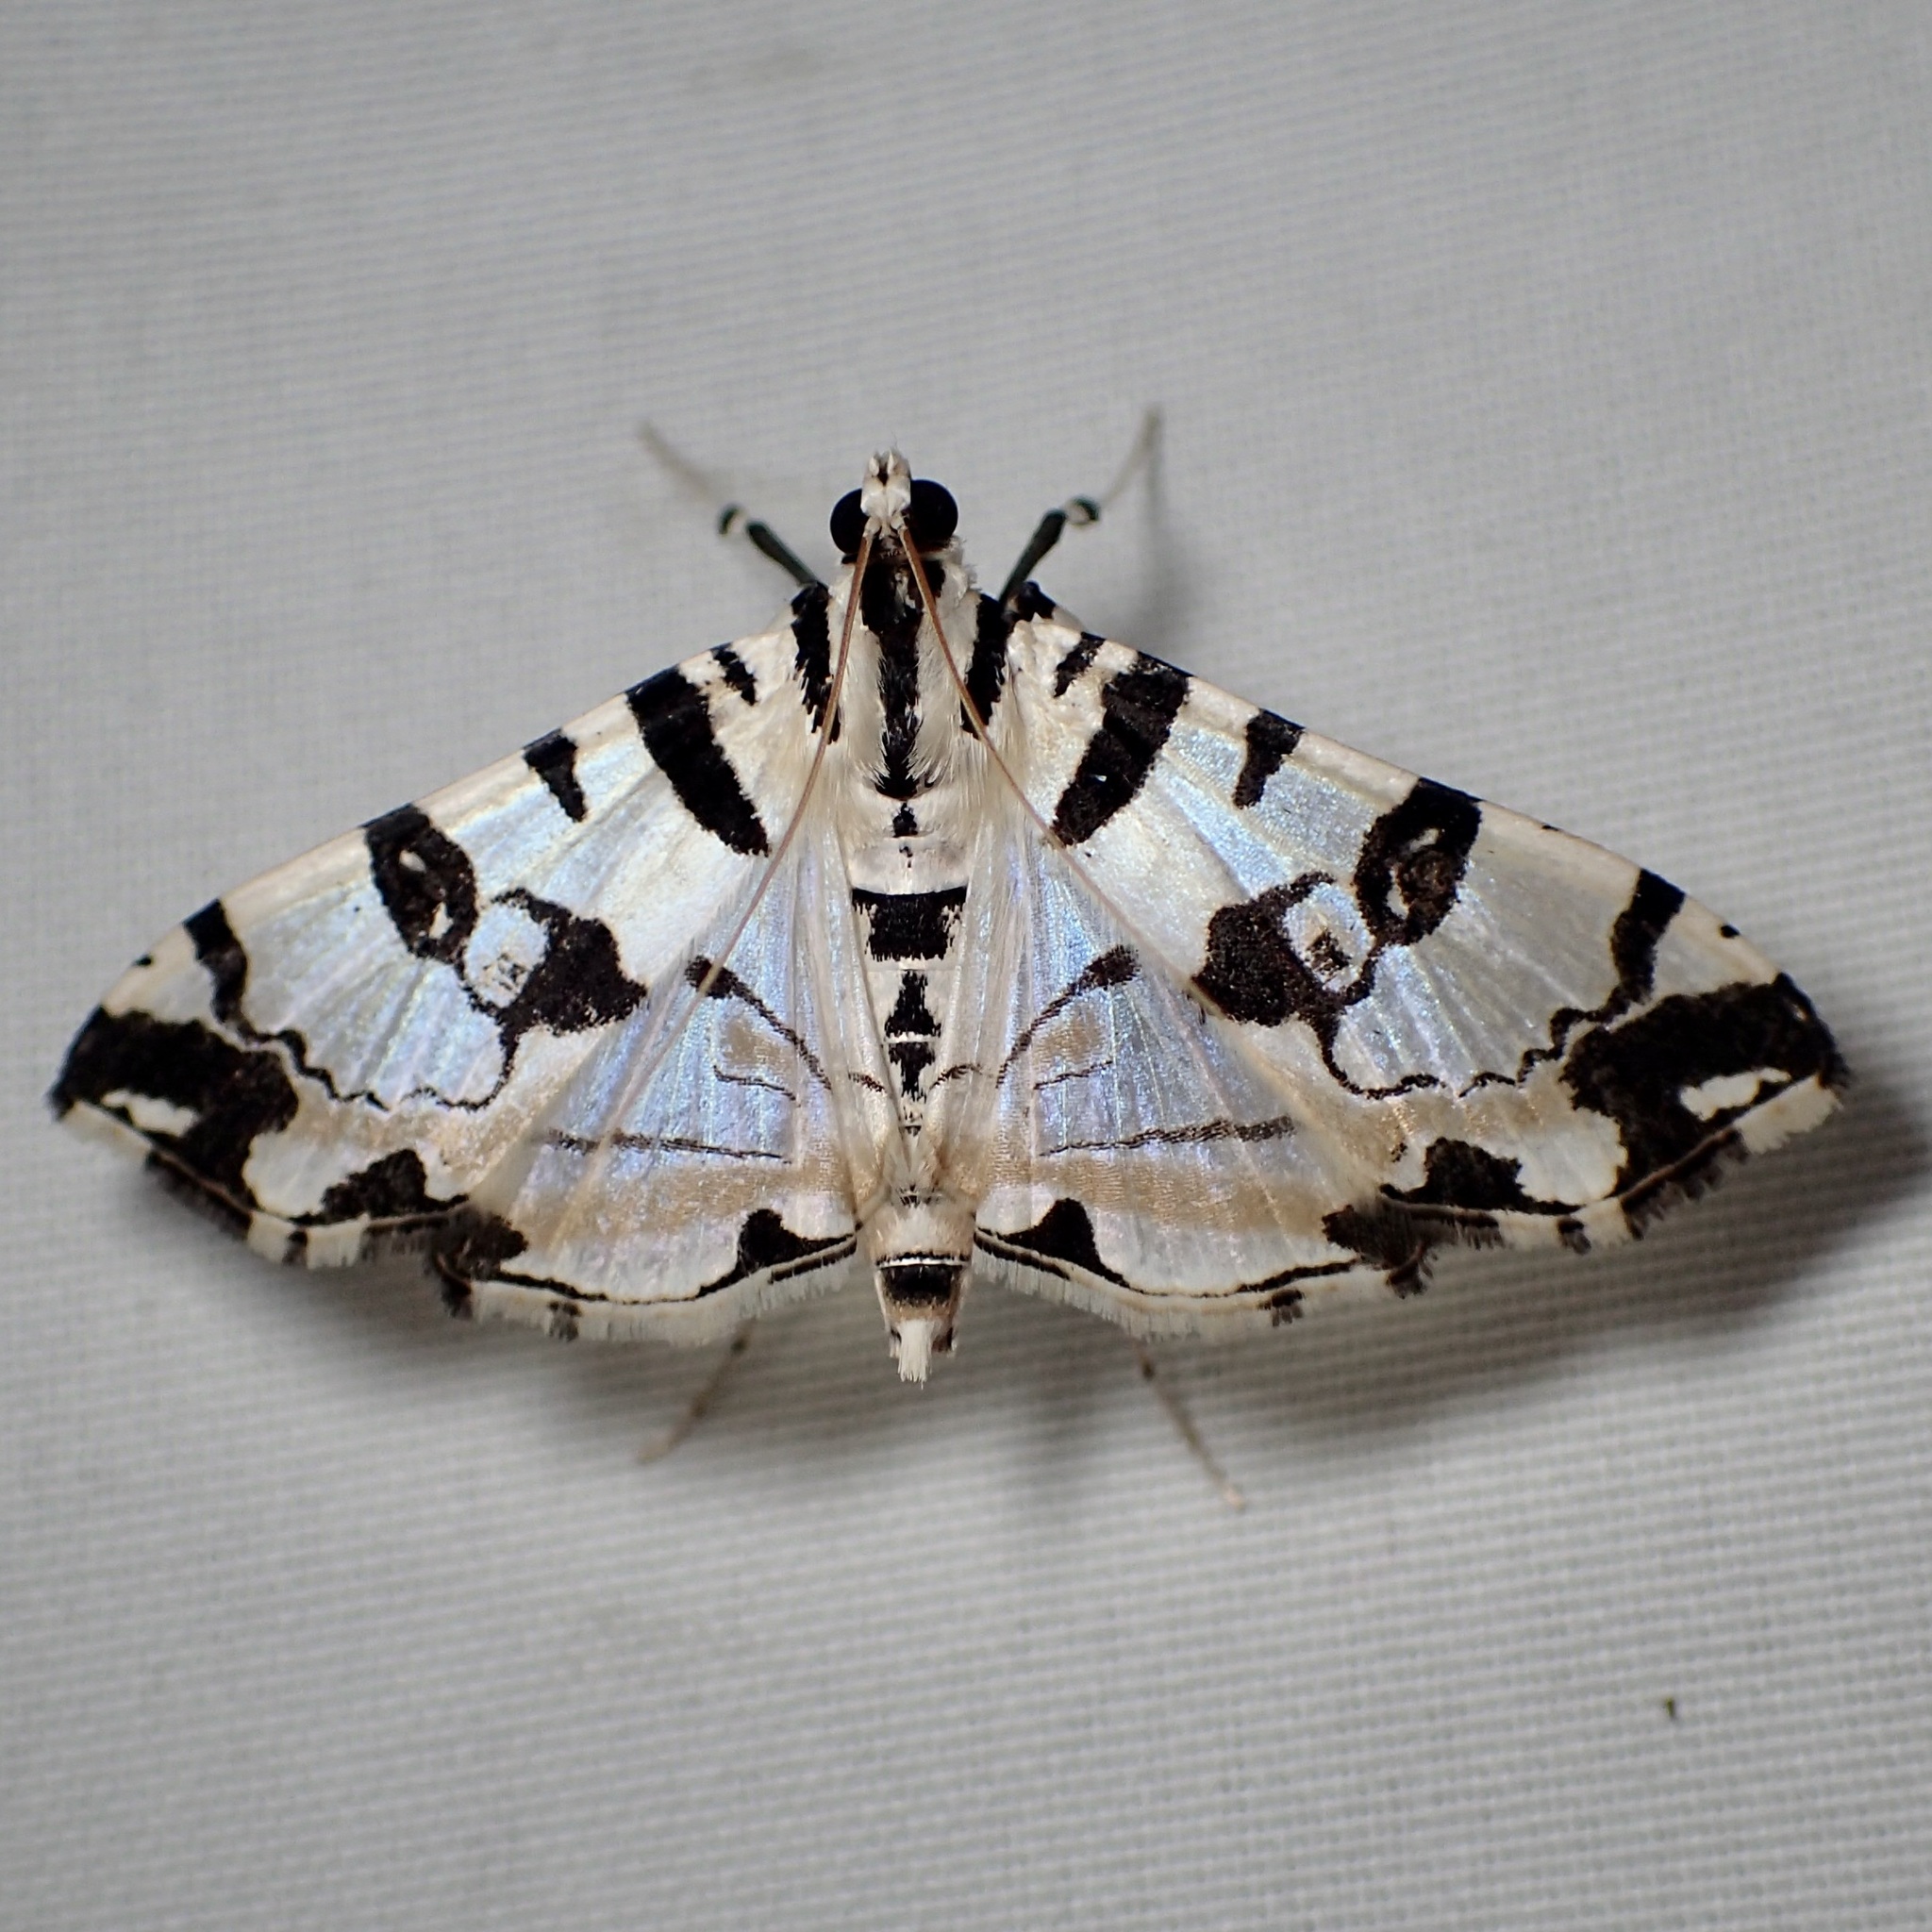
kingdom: Animalia
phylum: Arthropoda
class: Insecta
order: Lepidoptera
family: Crambidae
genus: Conchylodes
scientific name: Conchylodes salamisalis
